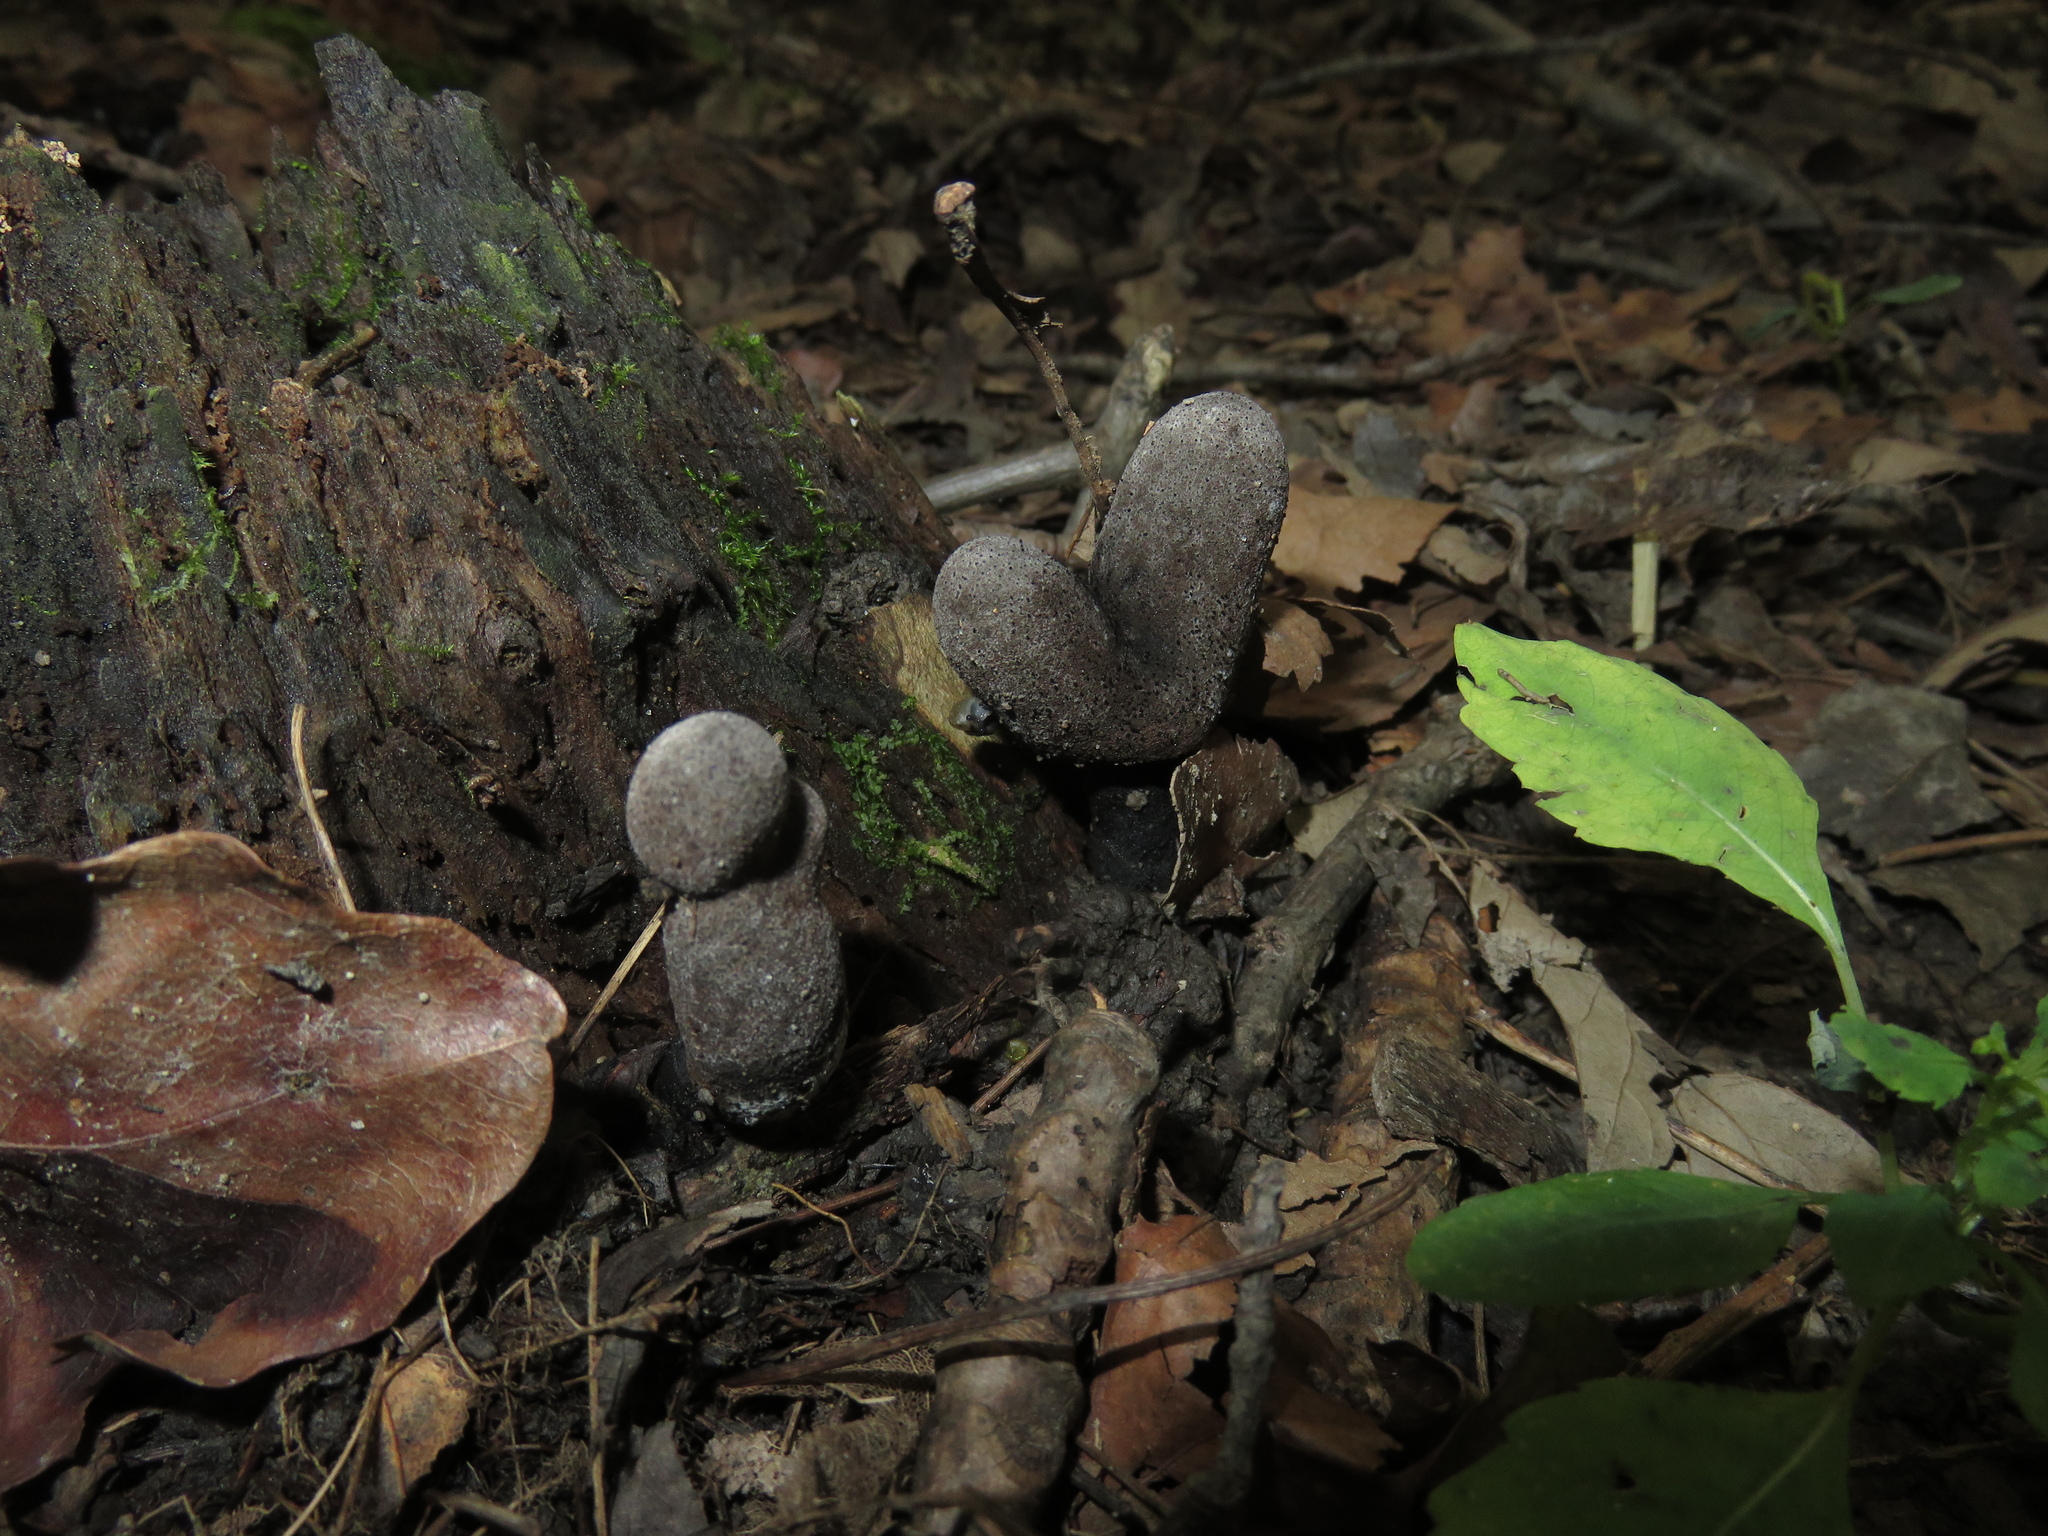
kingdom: Fungi
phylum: Ascomycota
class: Sordariomycetes
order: Xylariales
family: Xylariaceae
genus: Xylaria
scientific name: Xylaria polymorpha
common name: Dead man's fingers
